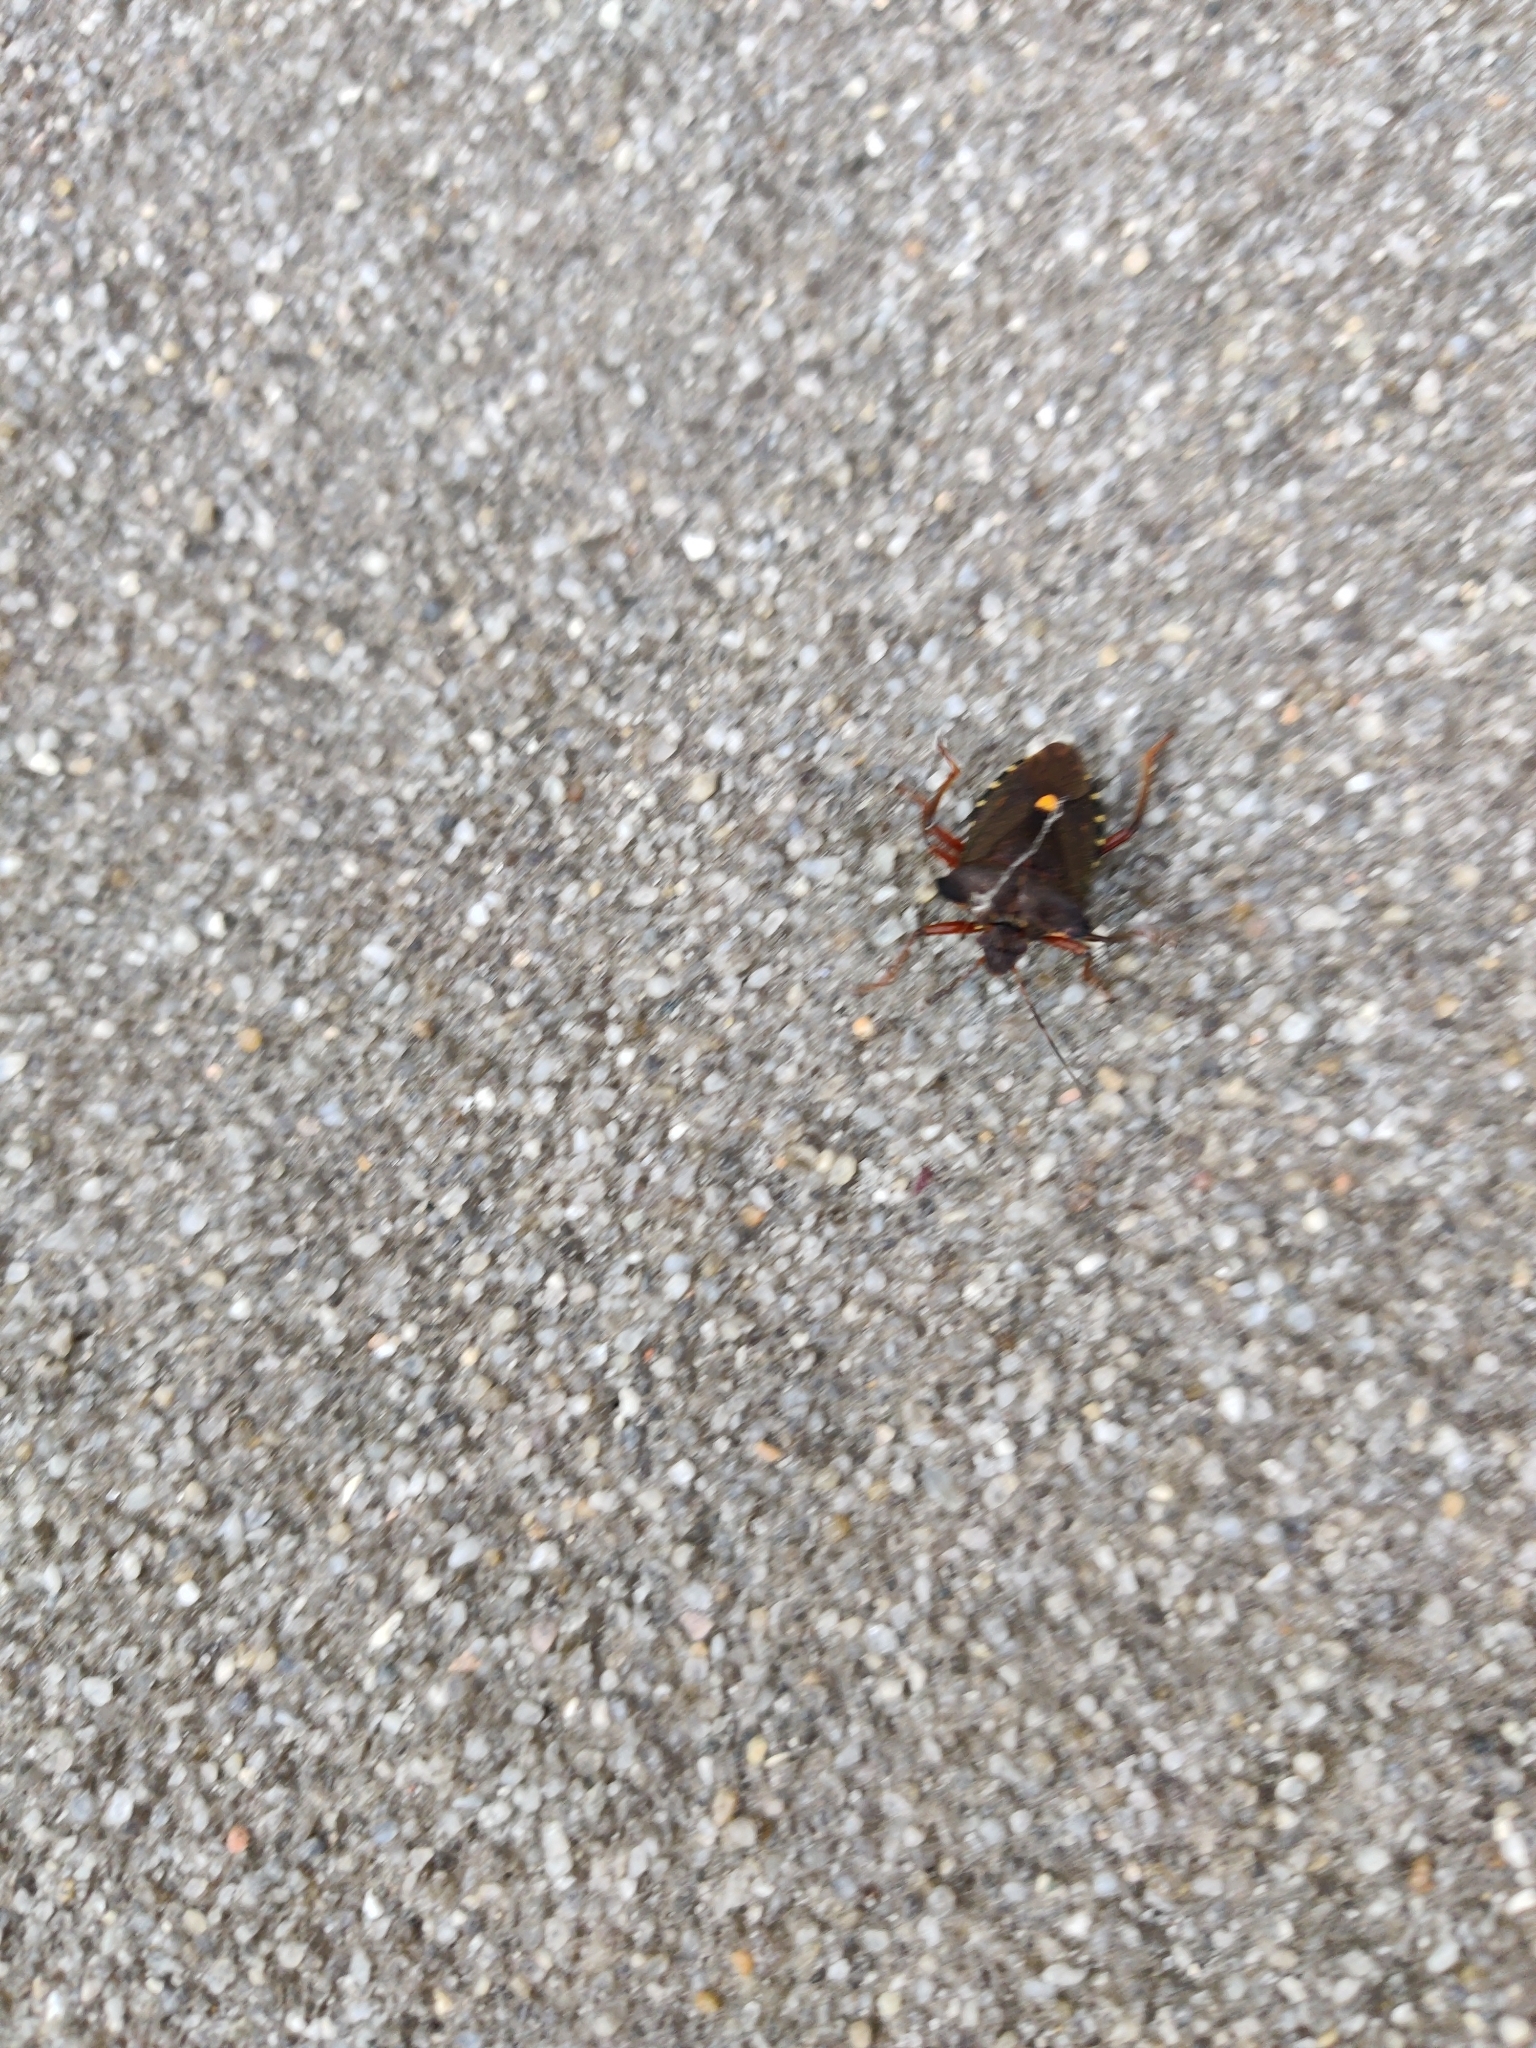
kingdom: Animalia
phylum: Arthropoda
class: Insecta
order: Hemiptera
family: Pentatomidae
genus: Pentatoma
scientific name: Pentatoma rufipes
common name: Forest bug
